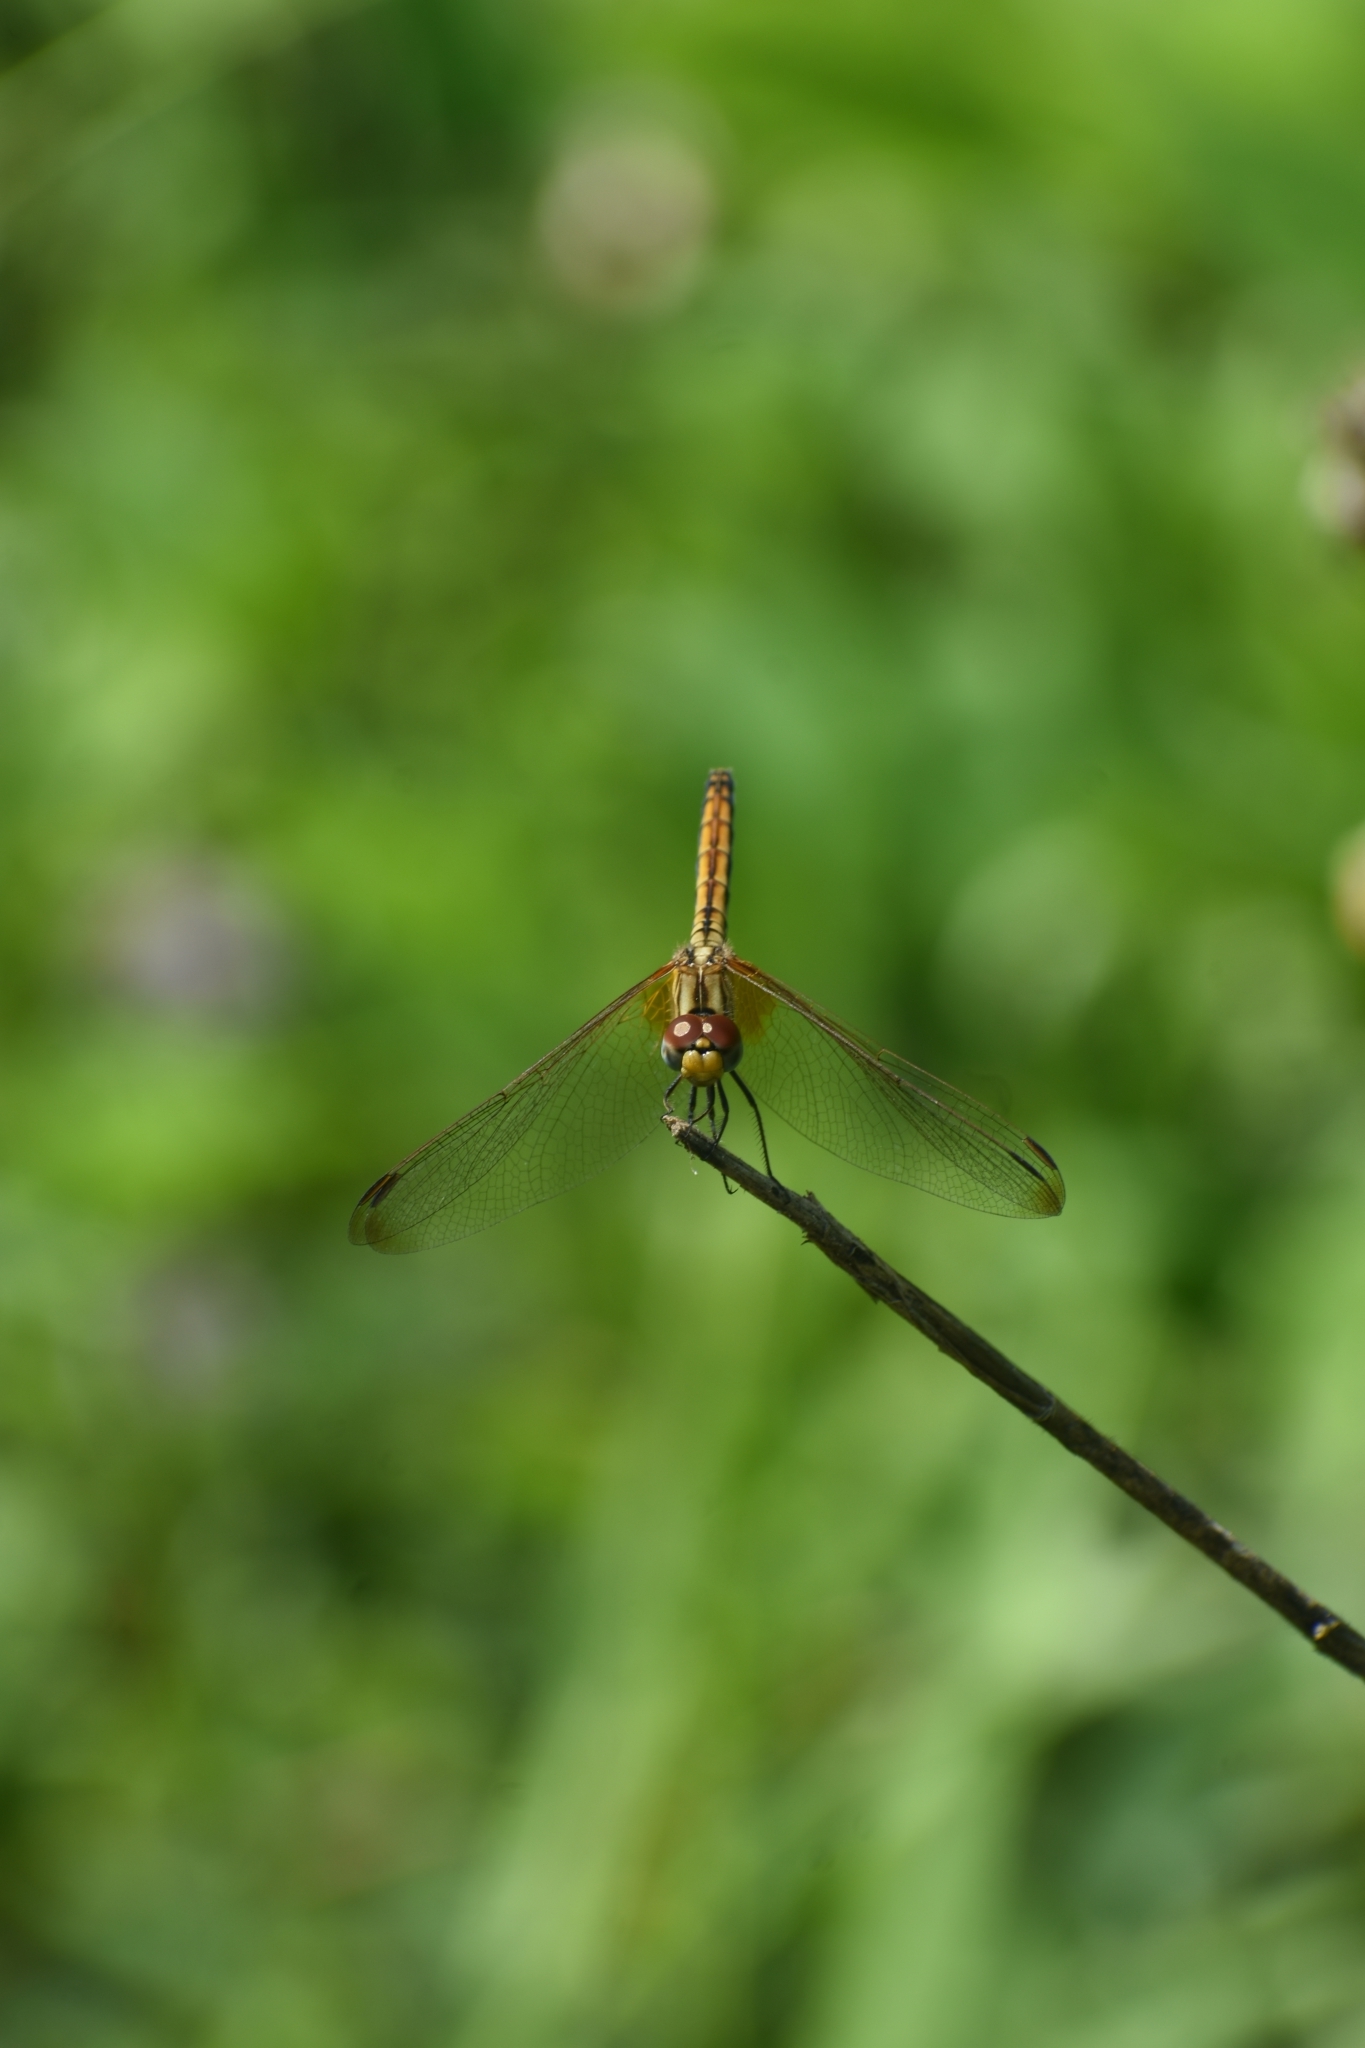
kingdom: Animalia
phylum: Arthropoda
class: Insecta
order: Odonata
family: Libellulidae
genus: Trithemis
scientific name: Trithemis aurora
